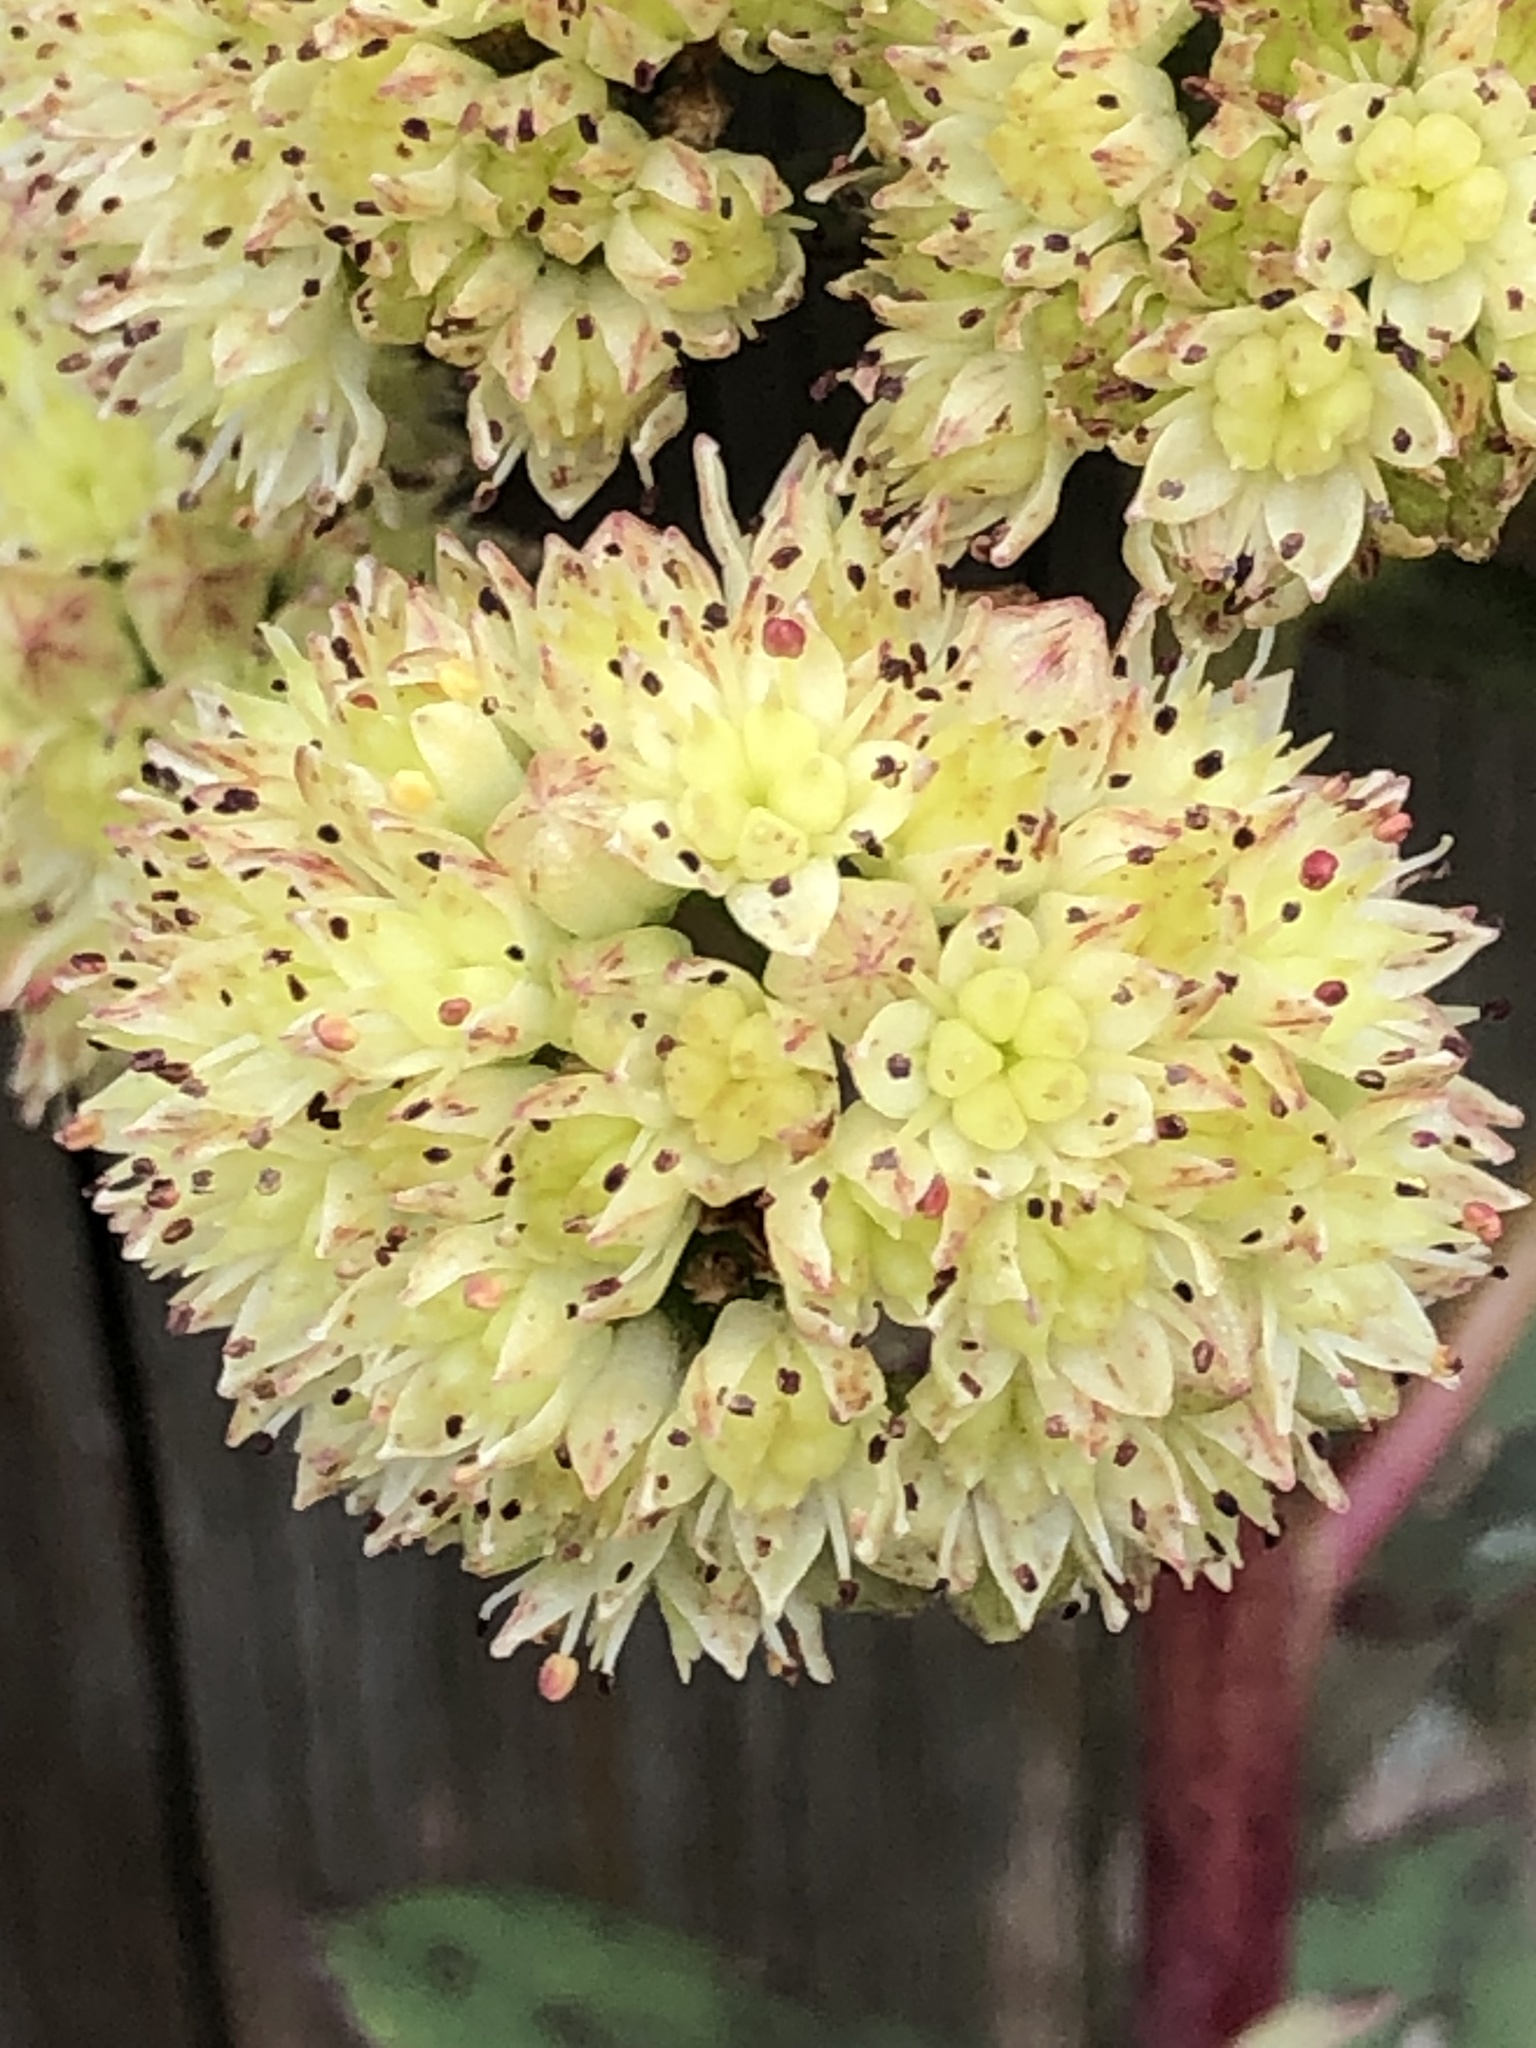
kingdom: Plantae
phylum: Tracheophyta
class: Magnoliopsida
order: Saxifragales
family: Crassulaceae
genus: Hylotelephium
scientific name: Hylotelephium maximum
